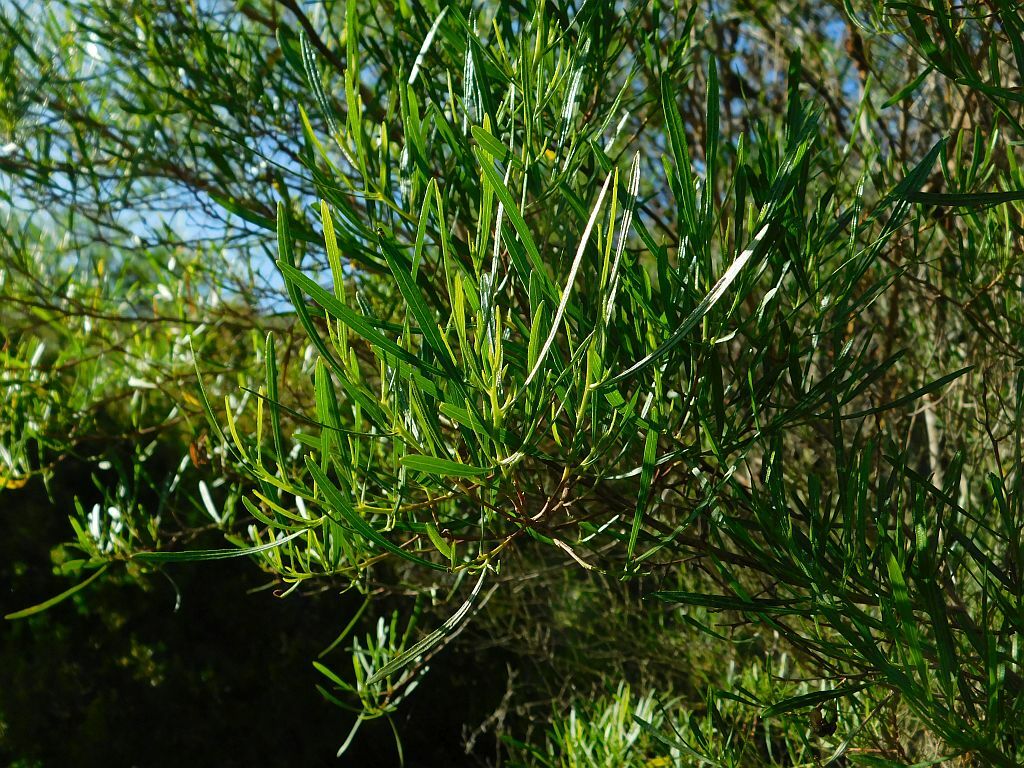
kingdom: Plantae
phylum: Tracheophyta
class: Magnoliopsida
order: Sapindales
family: Sapindaceae
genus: Dodonaea
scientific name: Dodonaea viscosa
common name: Hopbush
